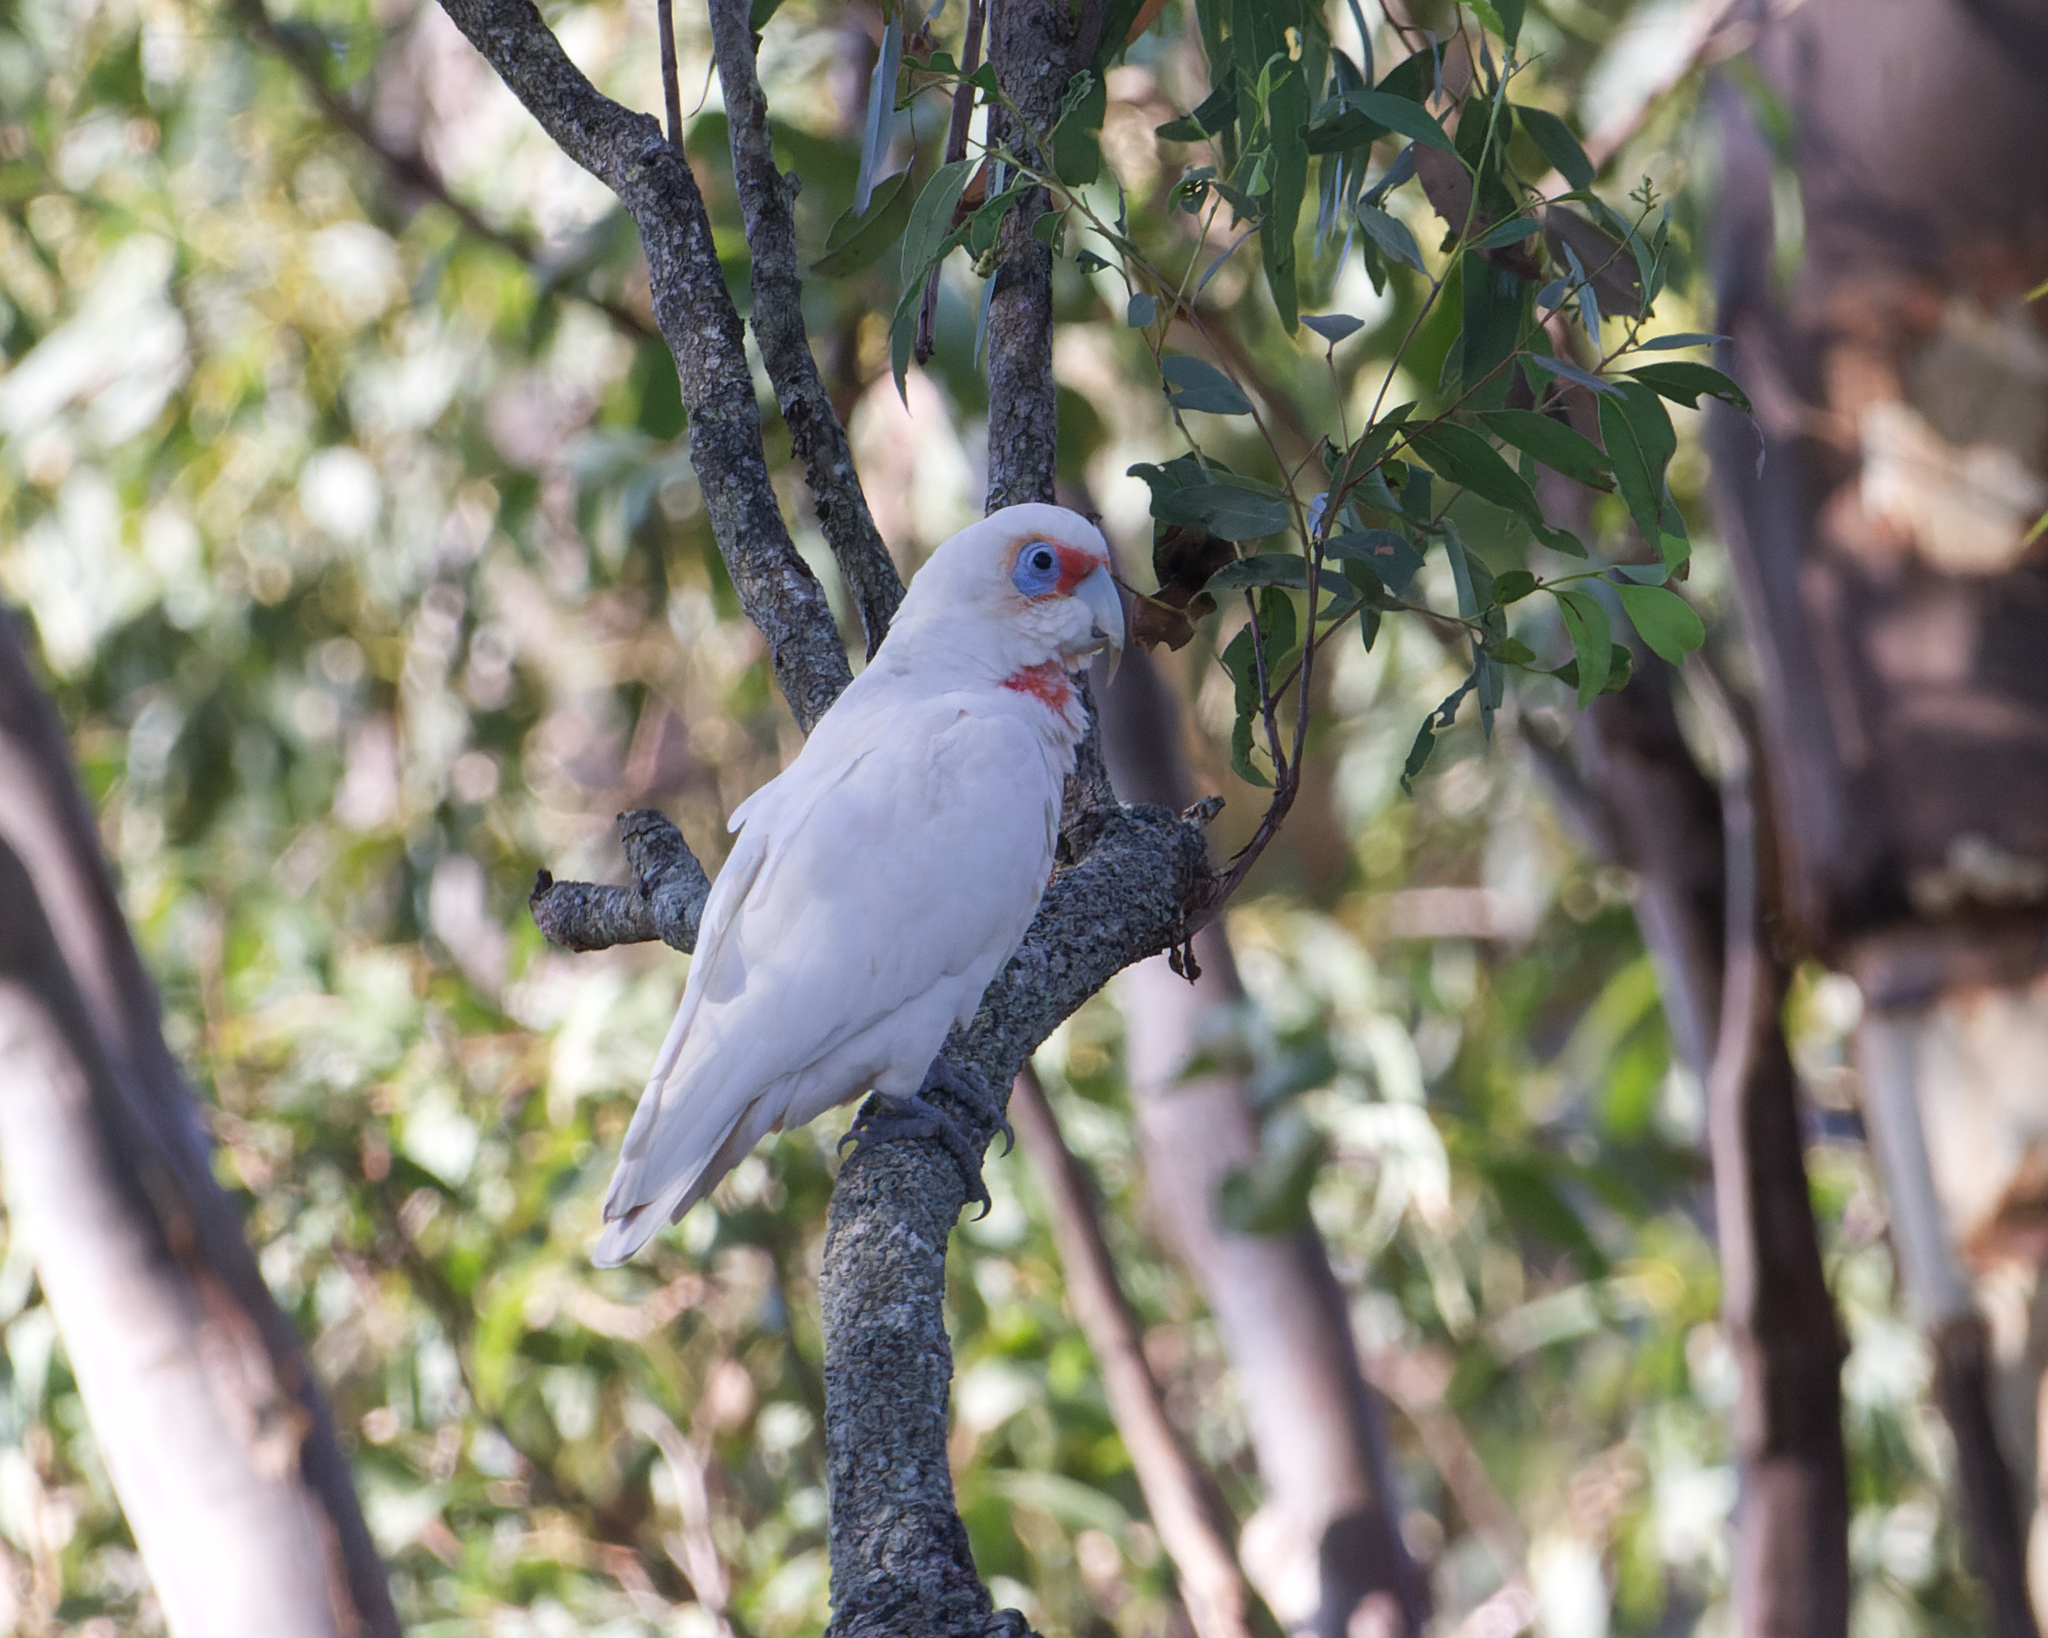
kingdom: Animalia
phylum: Chordata
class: Aves
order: Psittaciformes
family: Psittacidae
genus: Cacatua
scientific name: Cacatua tenuirostris
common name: Long-billed corella
